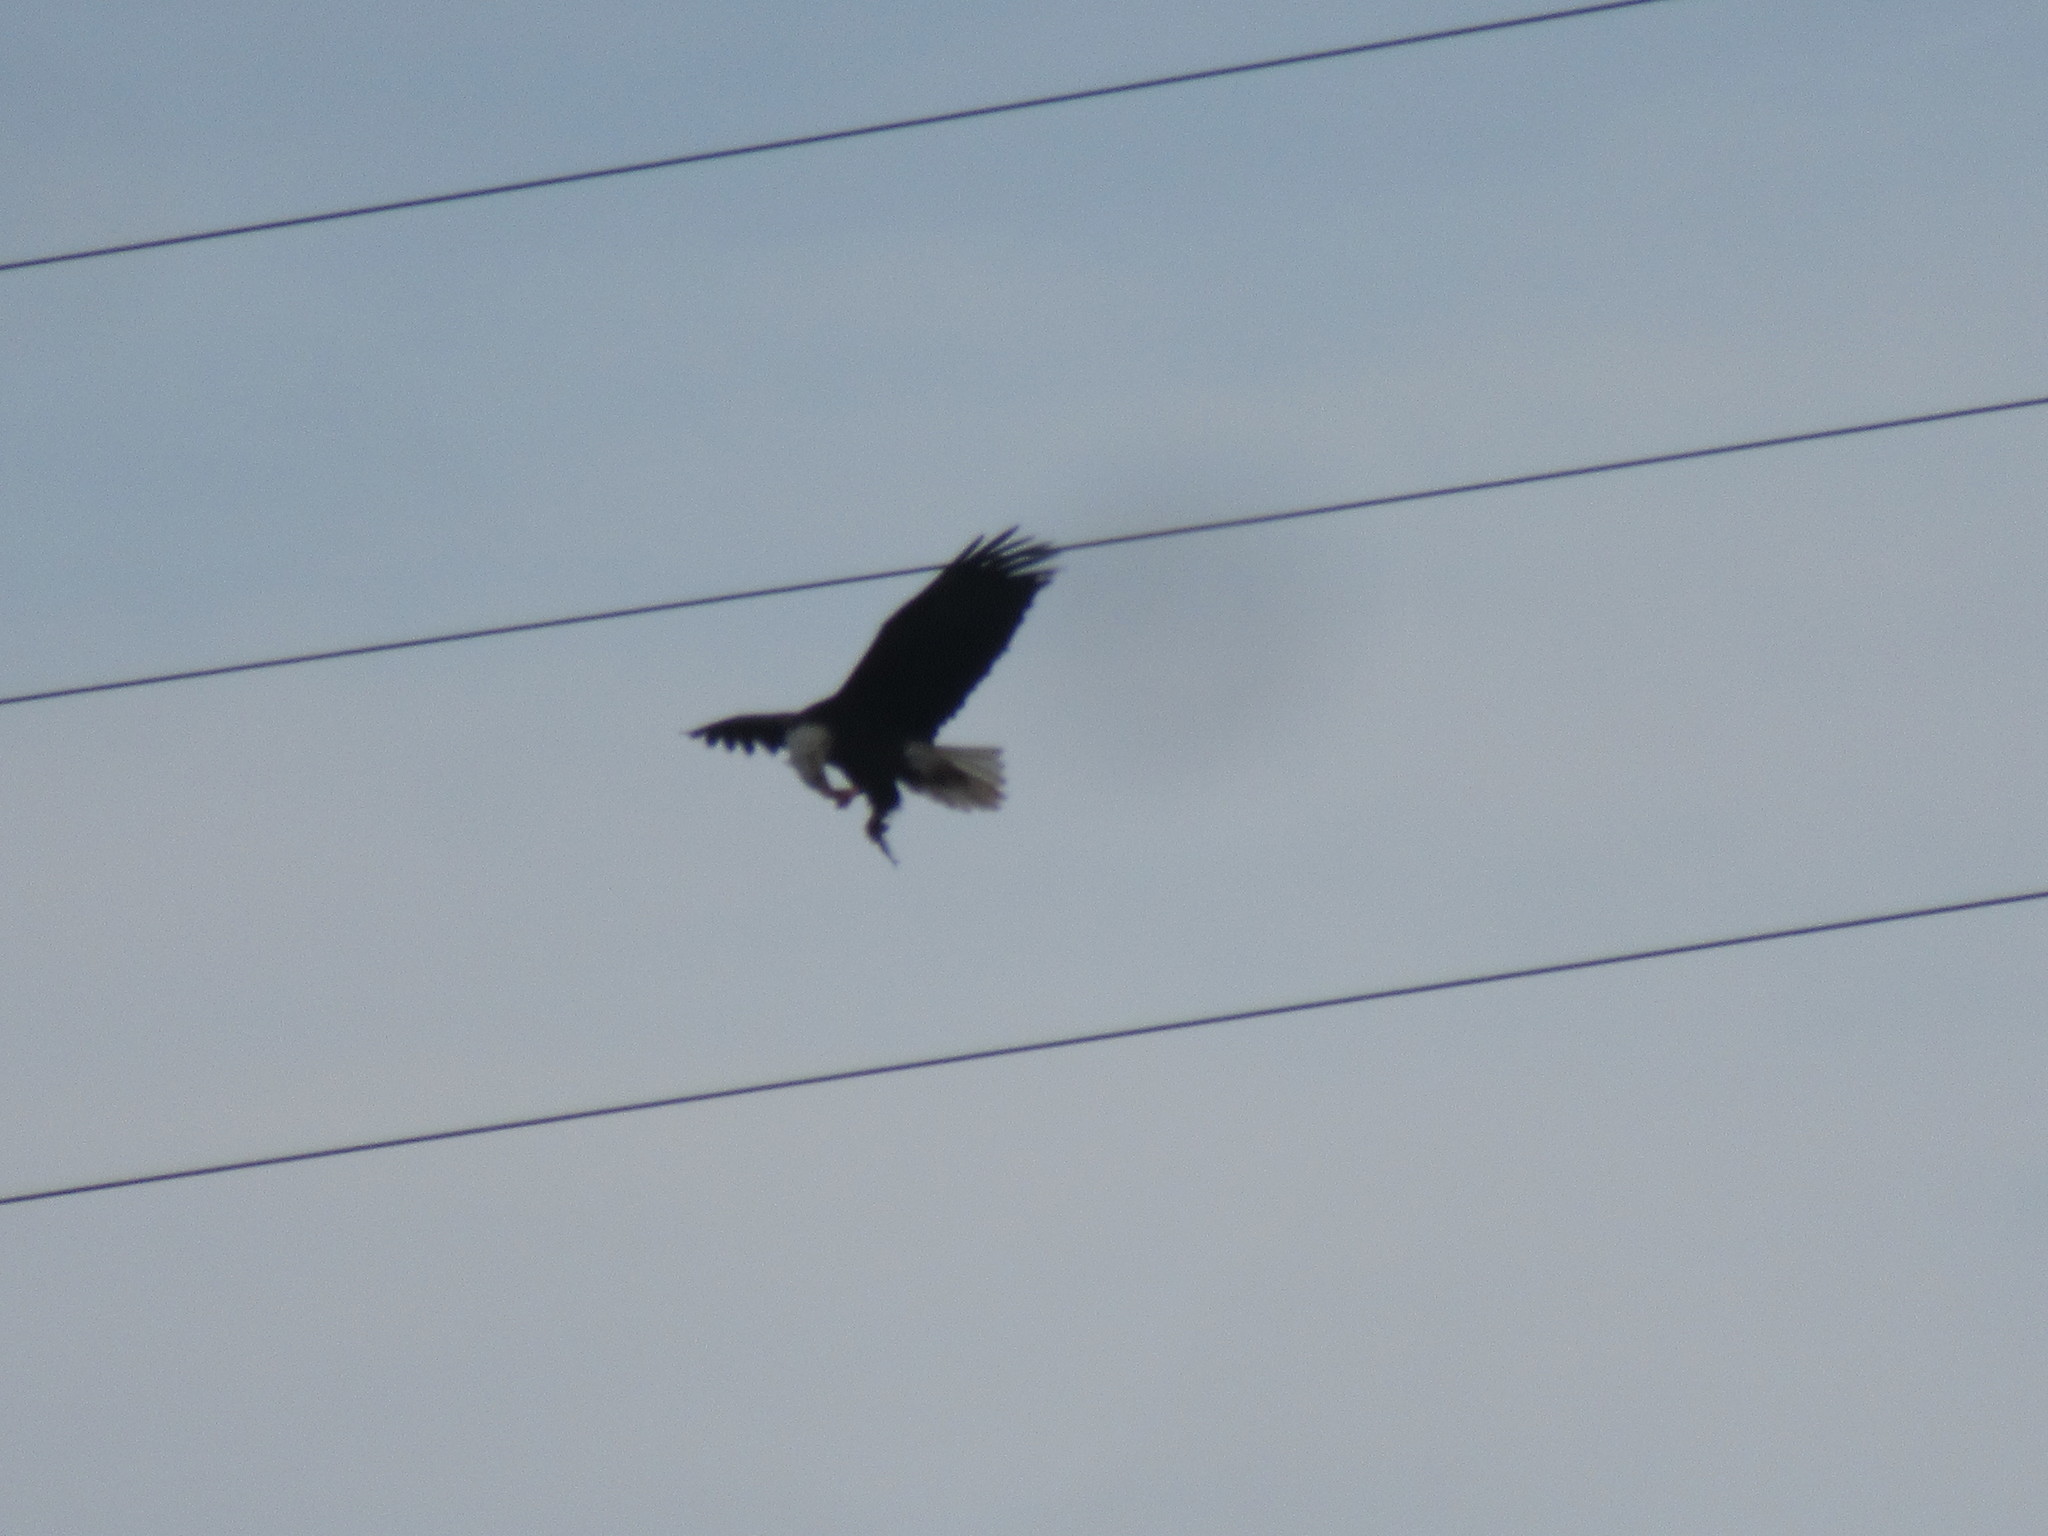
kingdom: Animalia
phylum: Chordata
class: Aves
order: Accipitriformes
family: Accipitridae
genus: Haliaeetus
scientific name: Haliaeetus leucocephalus
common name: Bald eagle
